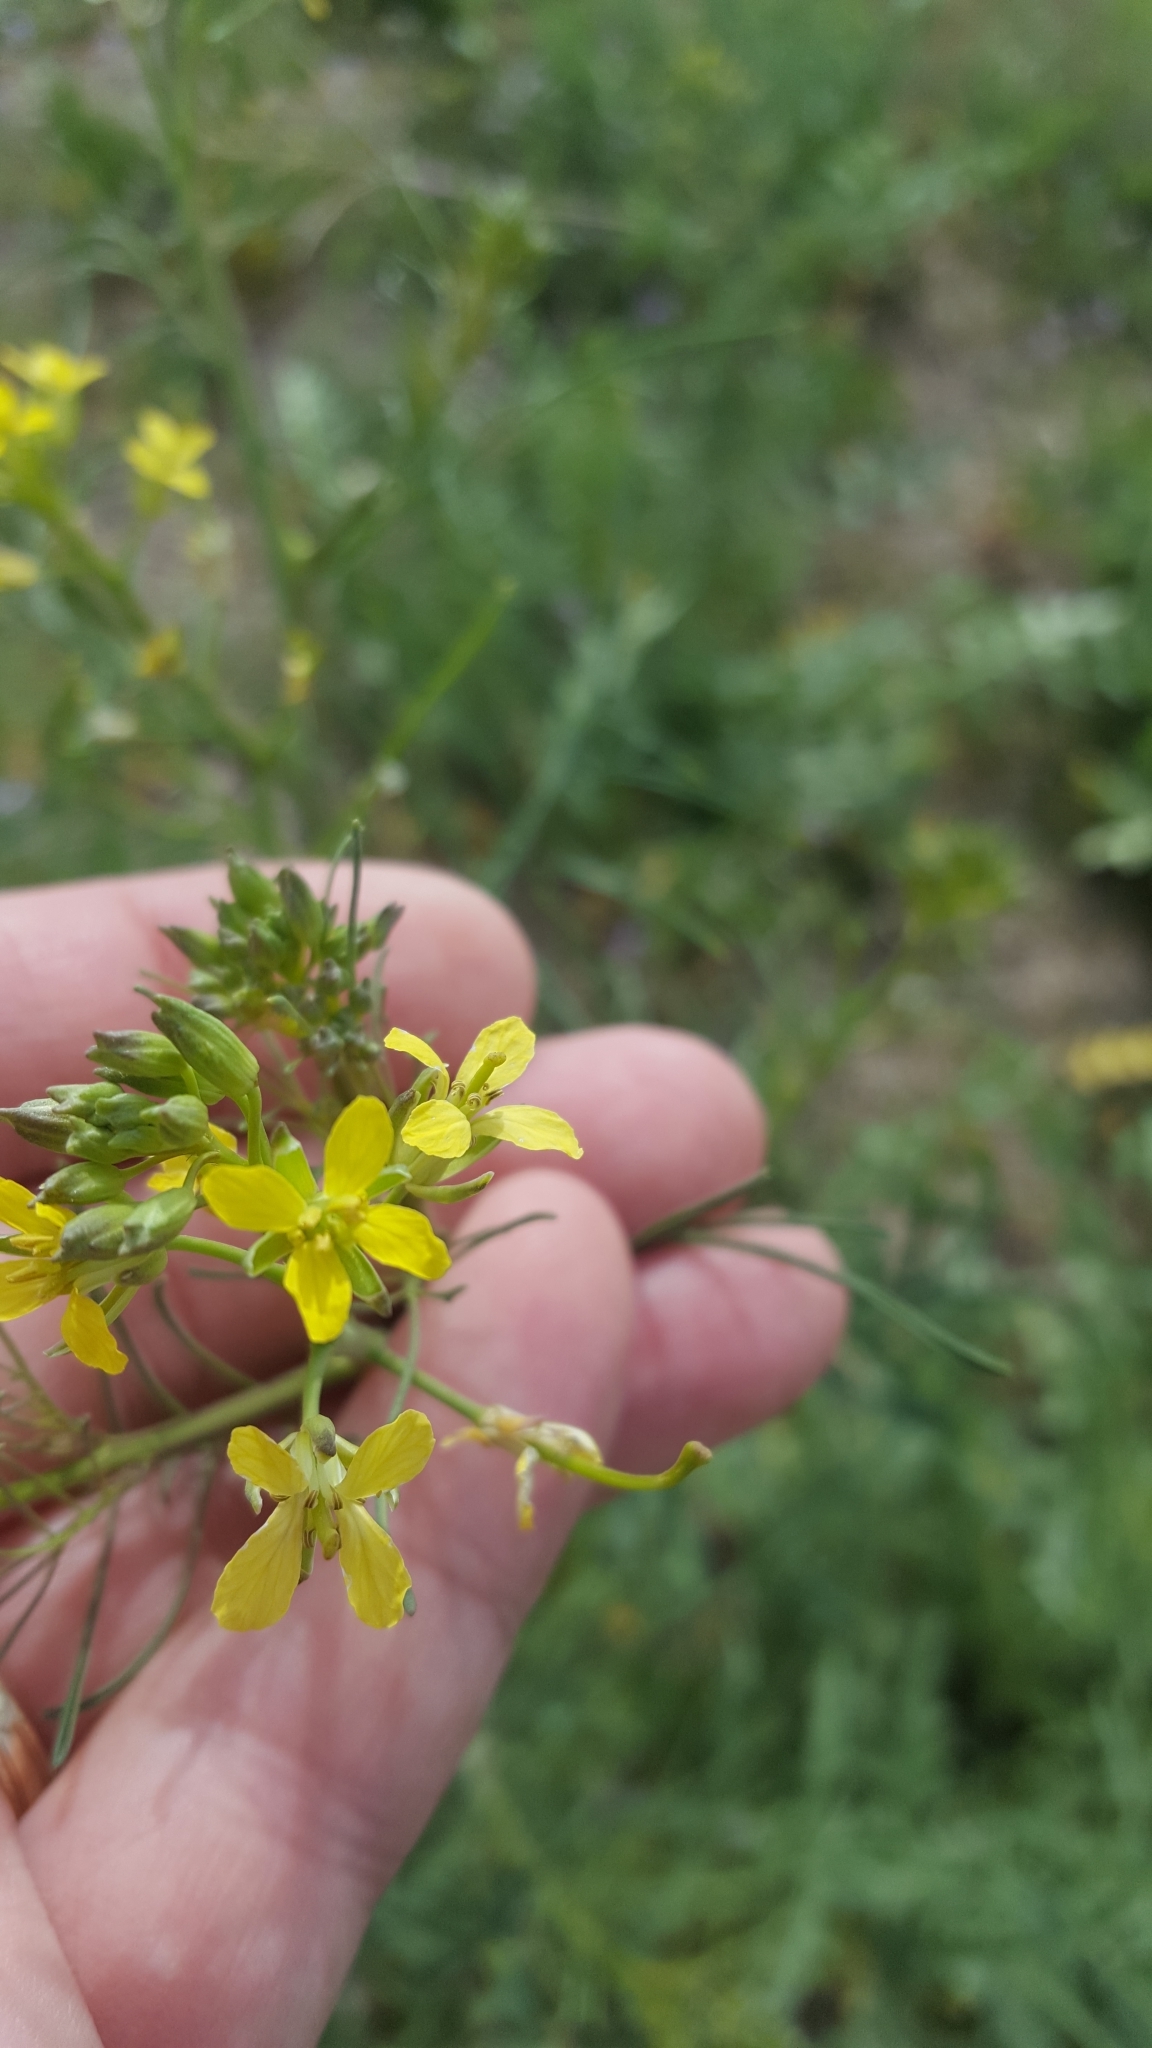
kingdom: Plantae
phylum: Tracheophyta
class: Magnoliopsida
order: Brassicales
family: Brassicaceae
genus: Sisymbrium
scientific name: Sisymbrium altissimum
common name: Tall rocket
